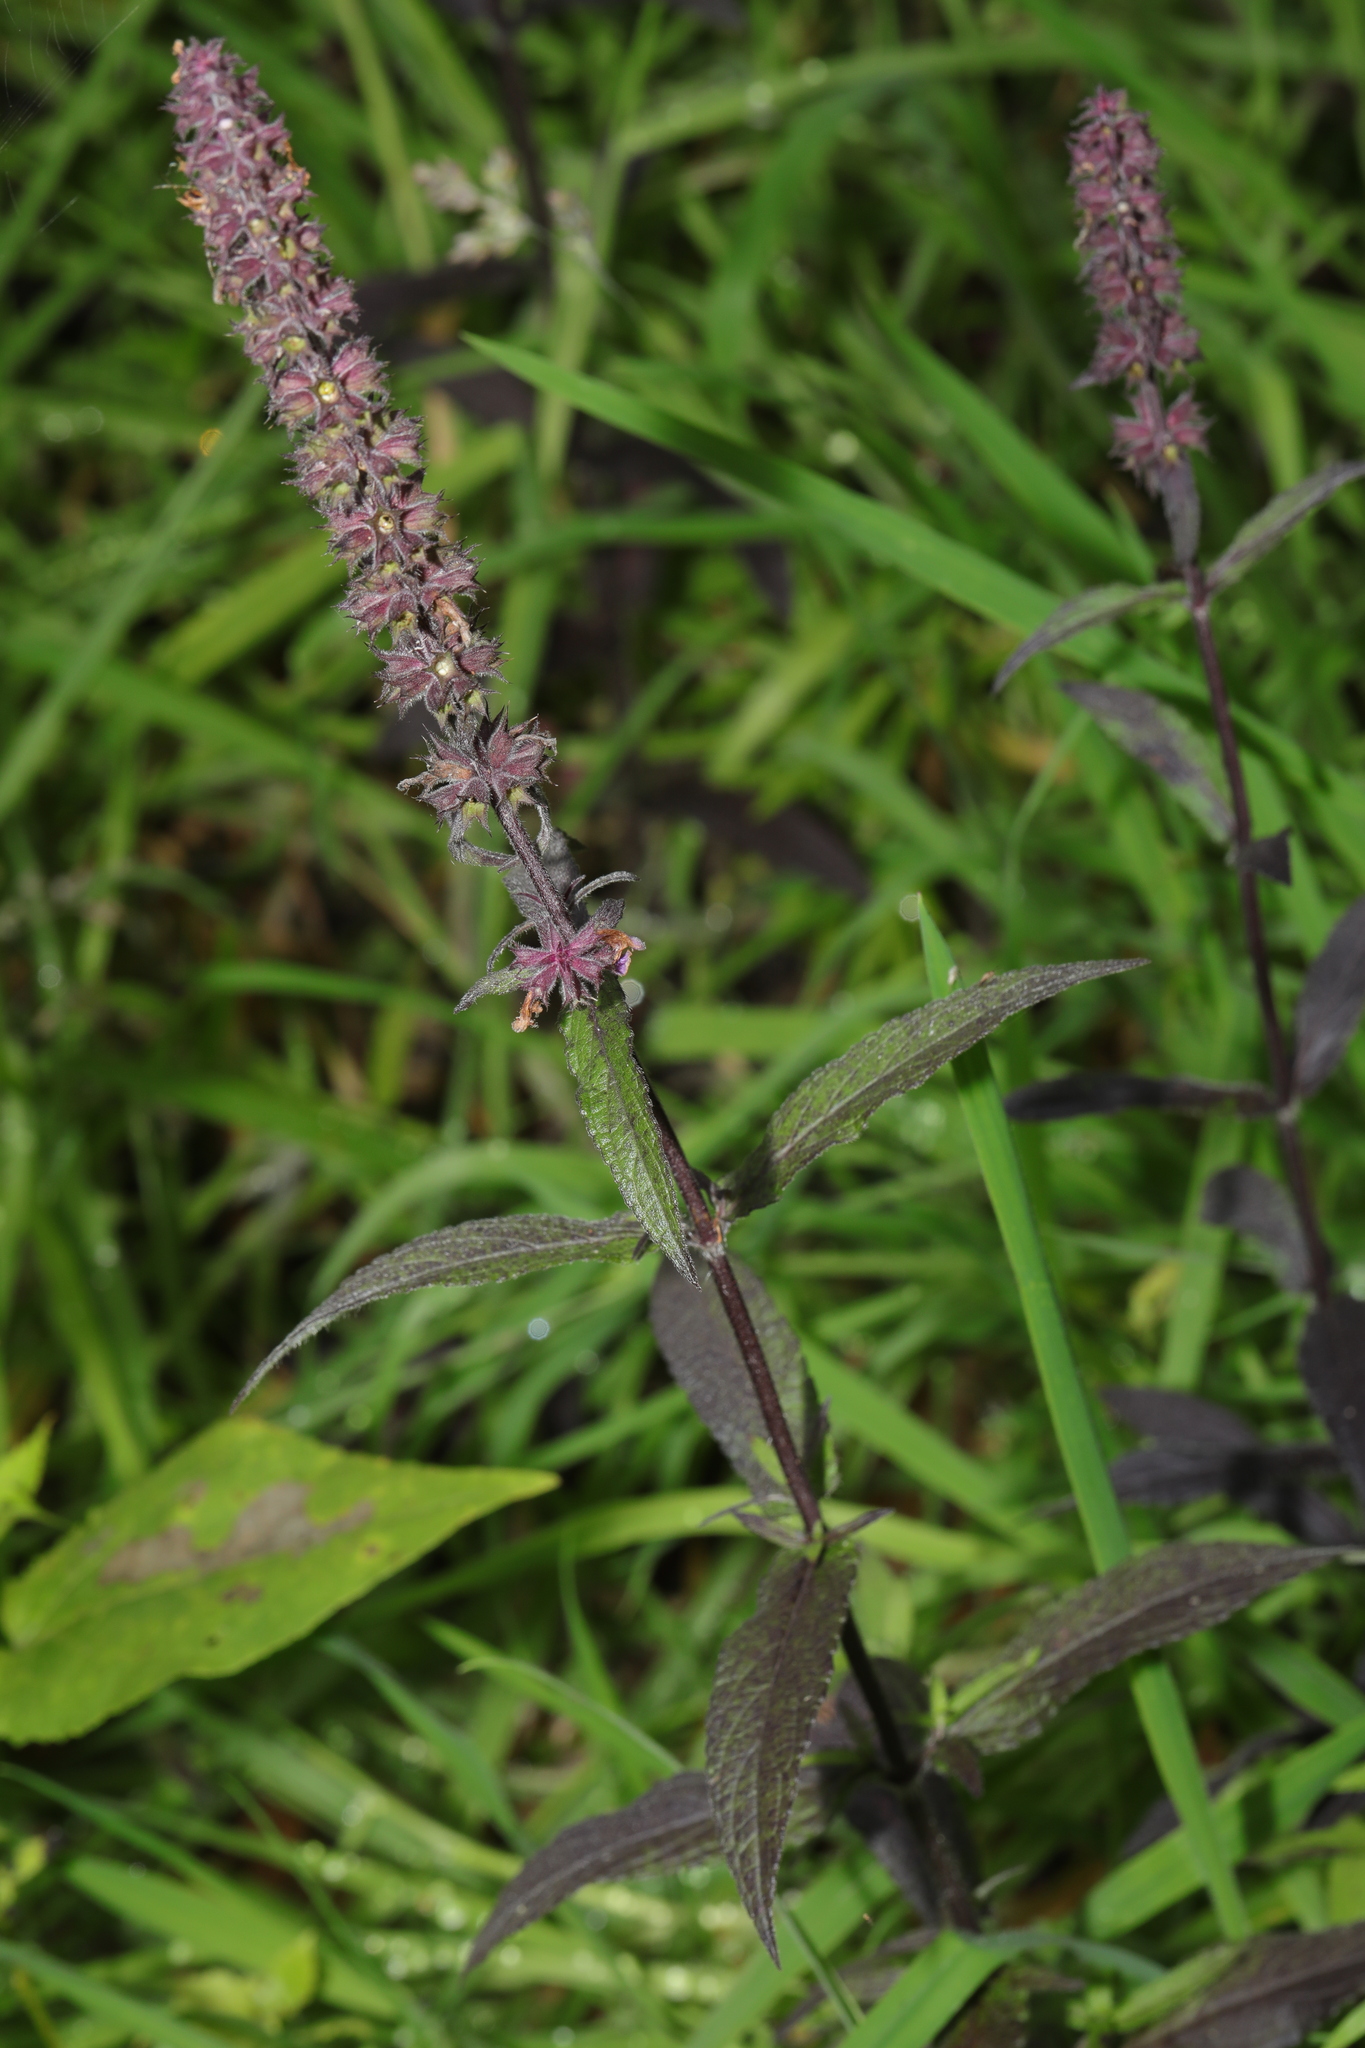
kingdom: Plantae
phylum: Tracheophyta
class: Magnoliopsida
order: Lamiales
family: Lamiaceae
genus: Stachys
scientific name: Stachys palustris
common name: Marsh woundwort
